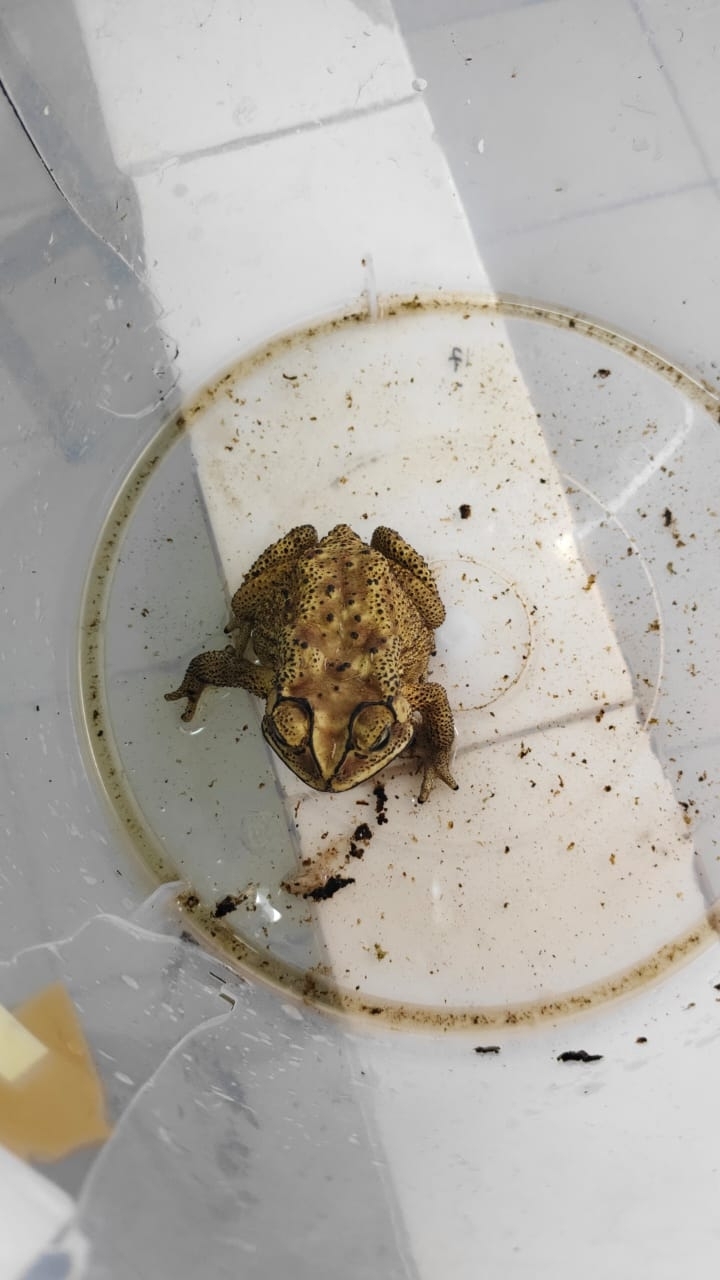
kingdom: Animalia
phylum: Chordata
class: Amphibia
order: Anura
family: Bufonidae
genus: Duttaphrynus
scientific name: Duttaphrynus melanostictus
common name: Common sunda toad
